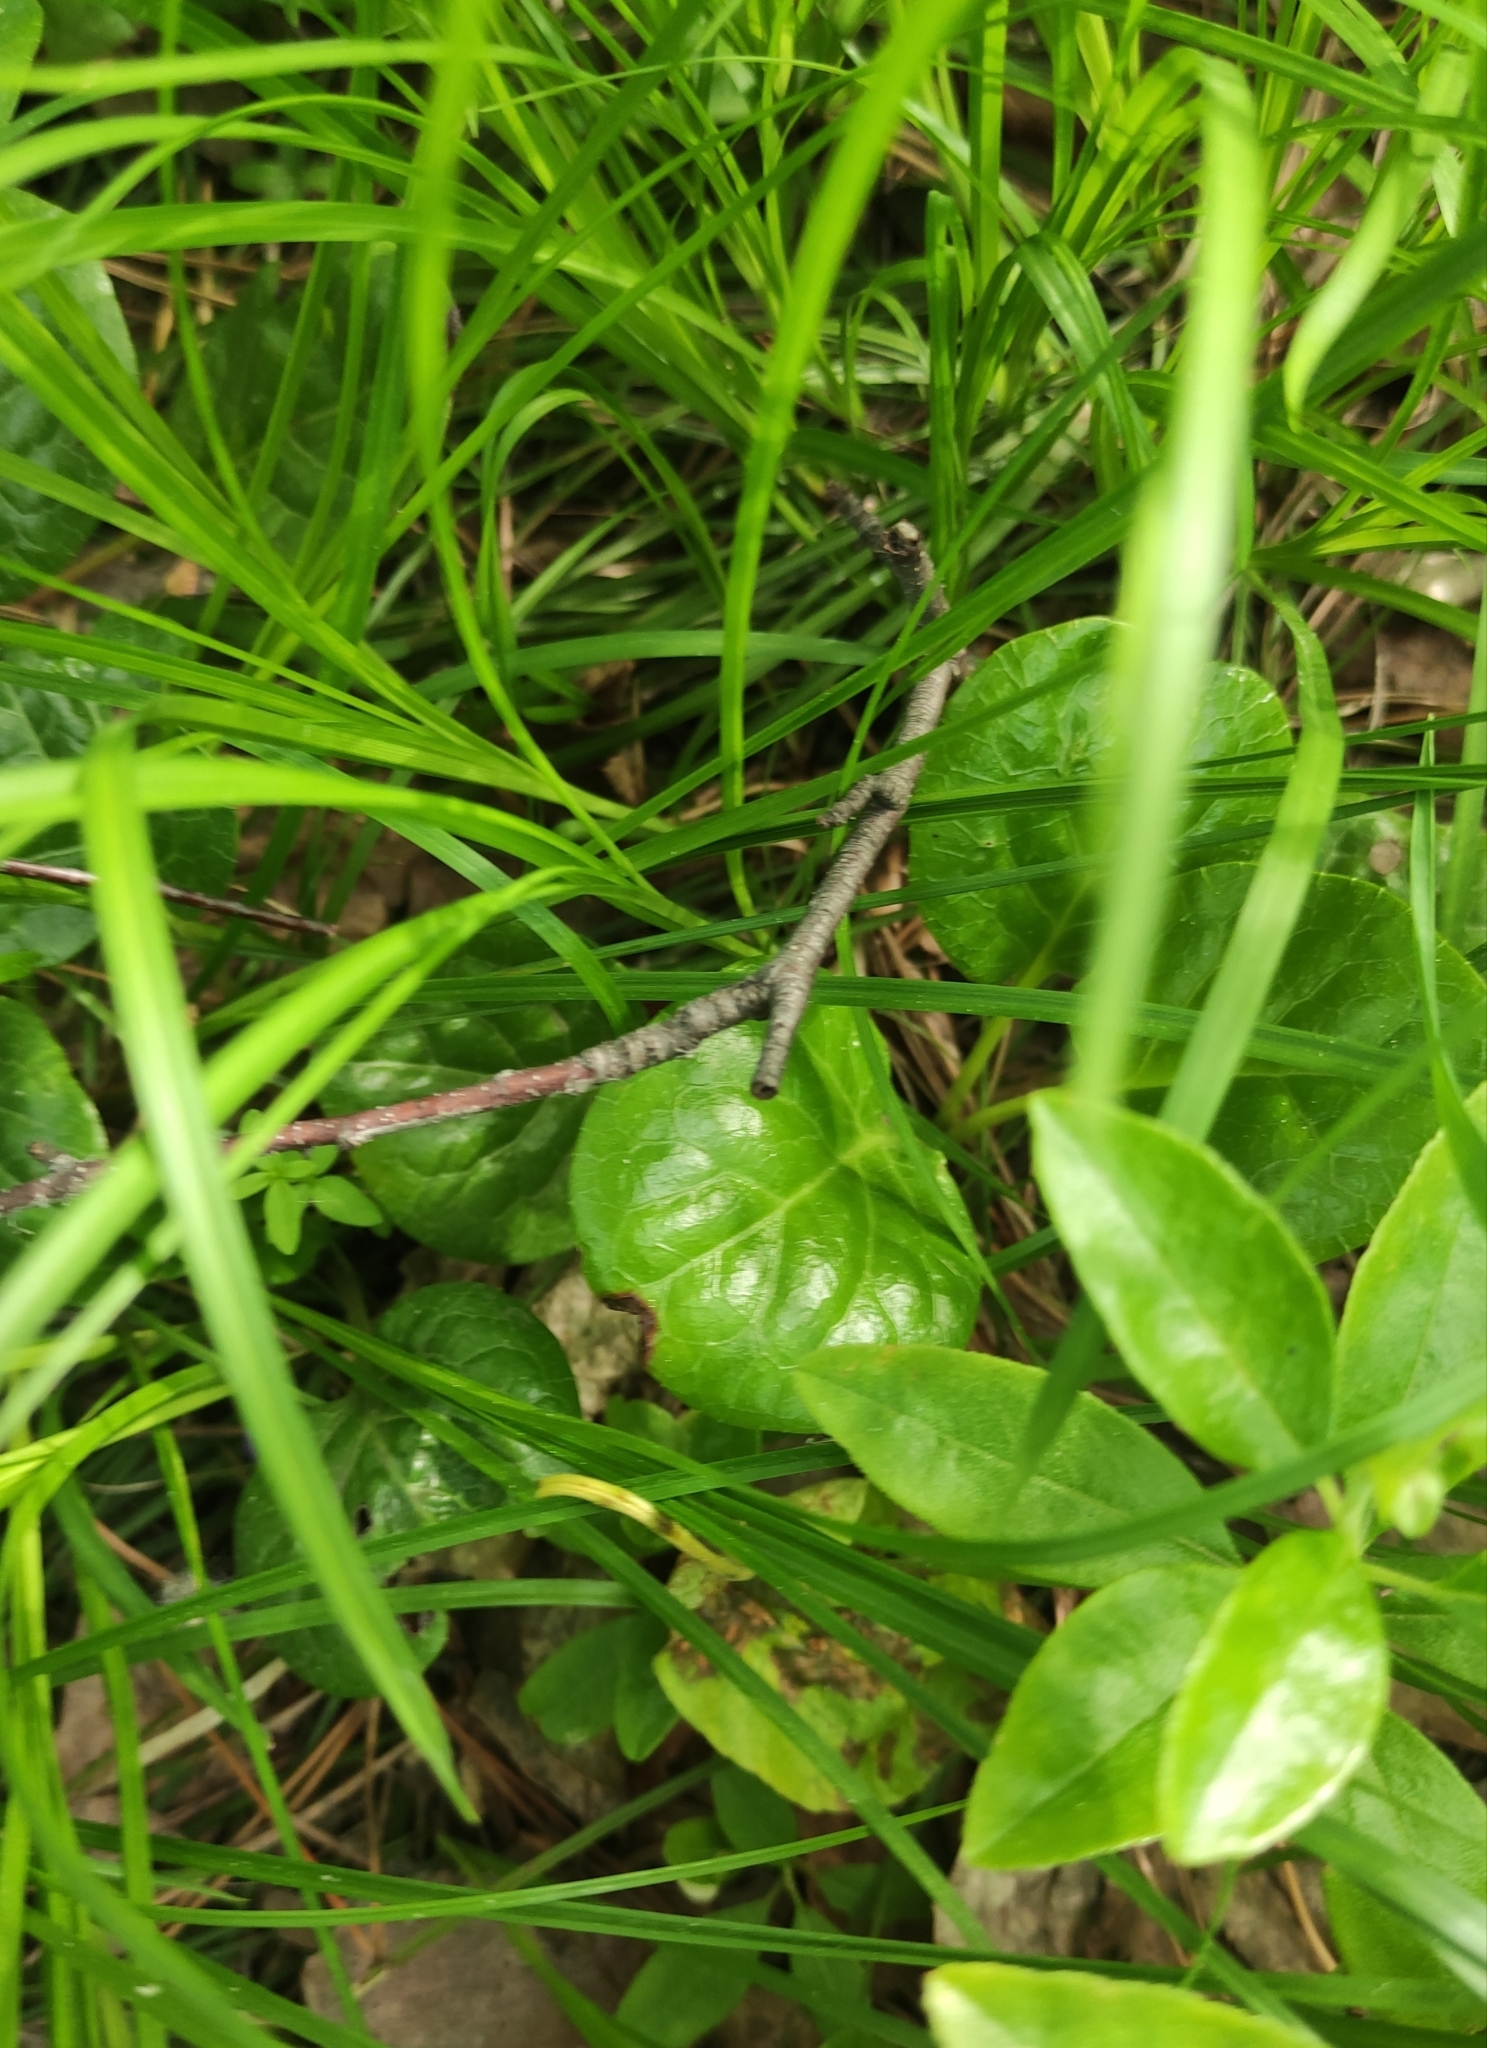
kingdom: Plantae
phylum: Tracheophyta
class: Magnoliopsida
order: Ericales
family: Ericaceae
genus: Pyrola
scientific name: Pyrola asarifolia
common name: Bog wintergreen
